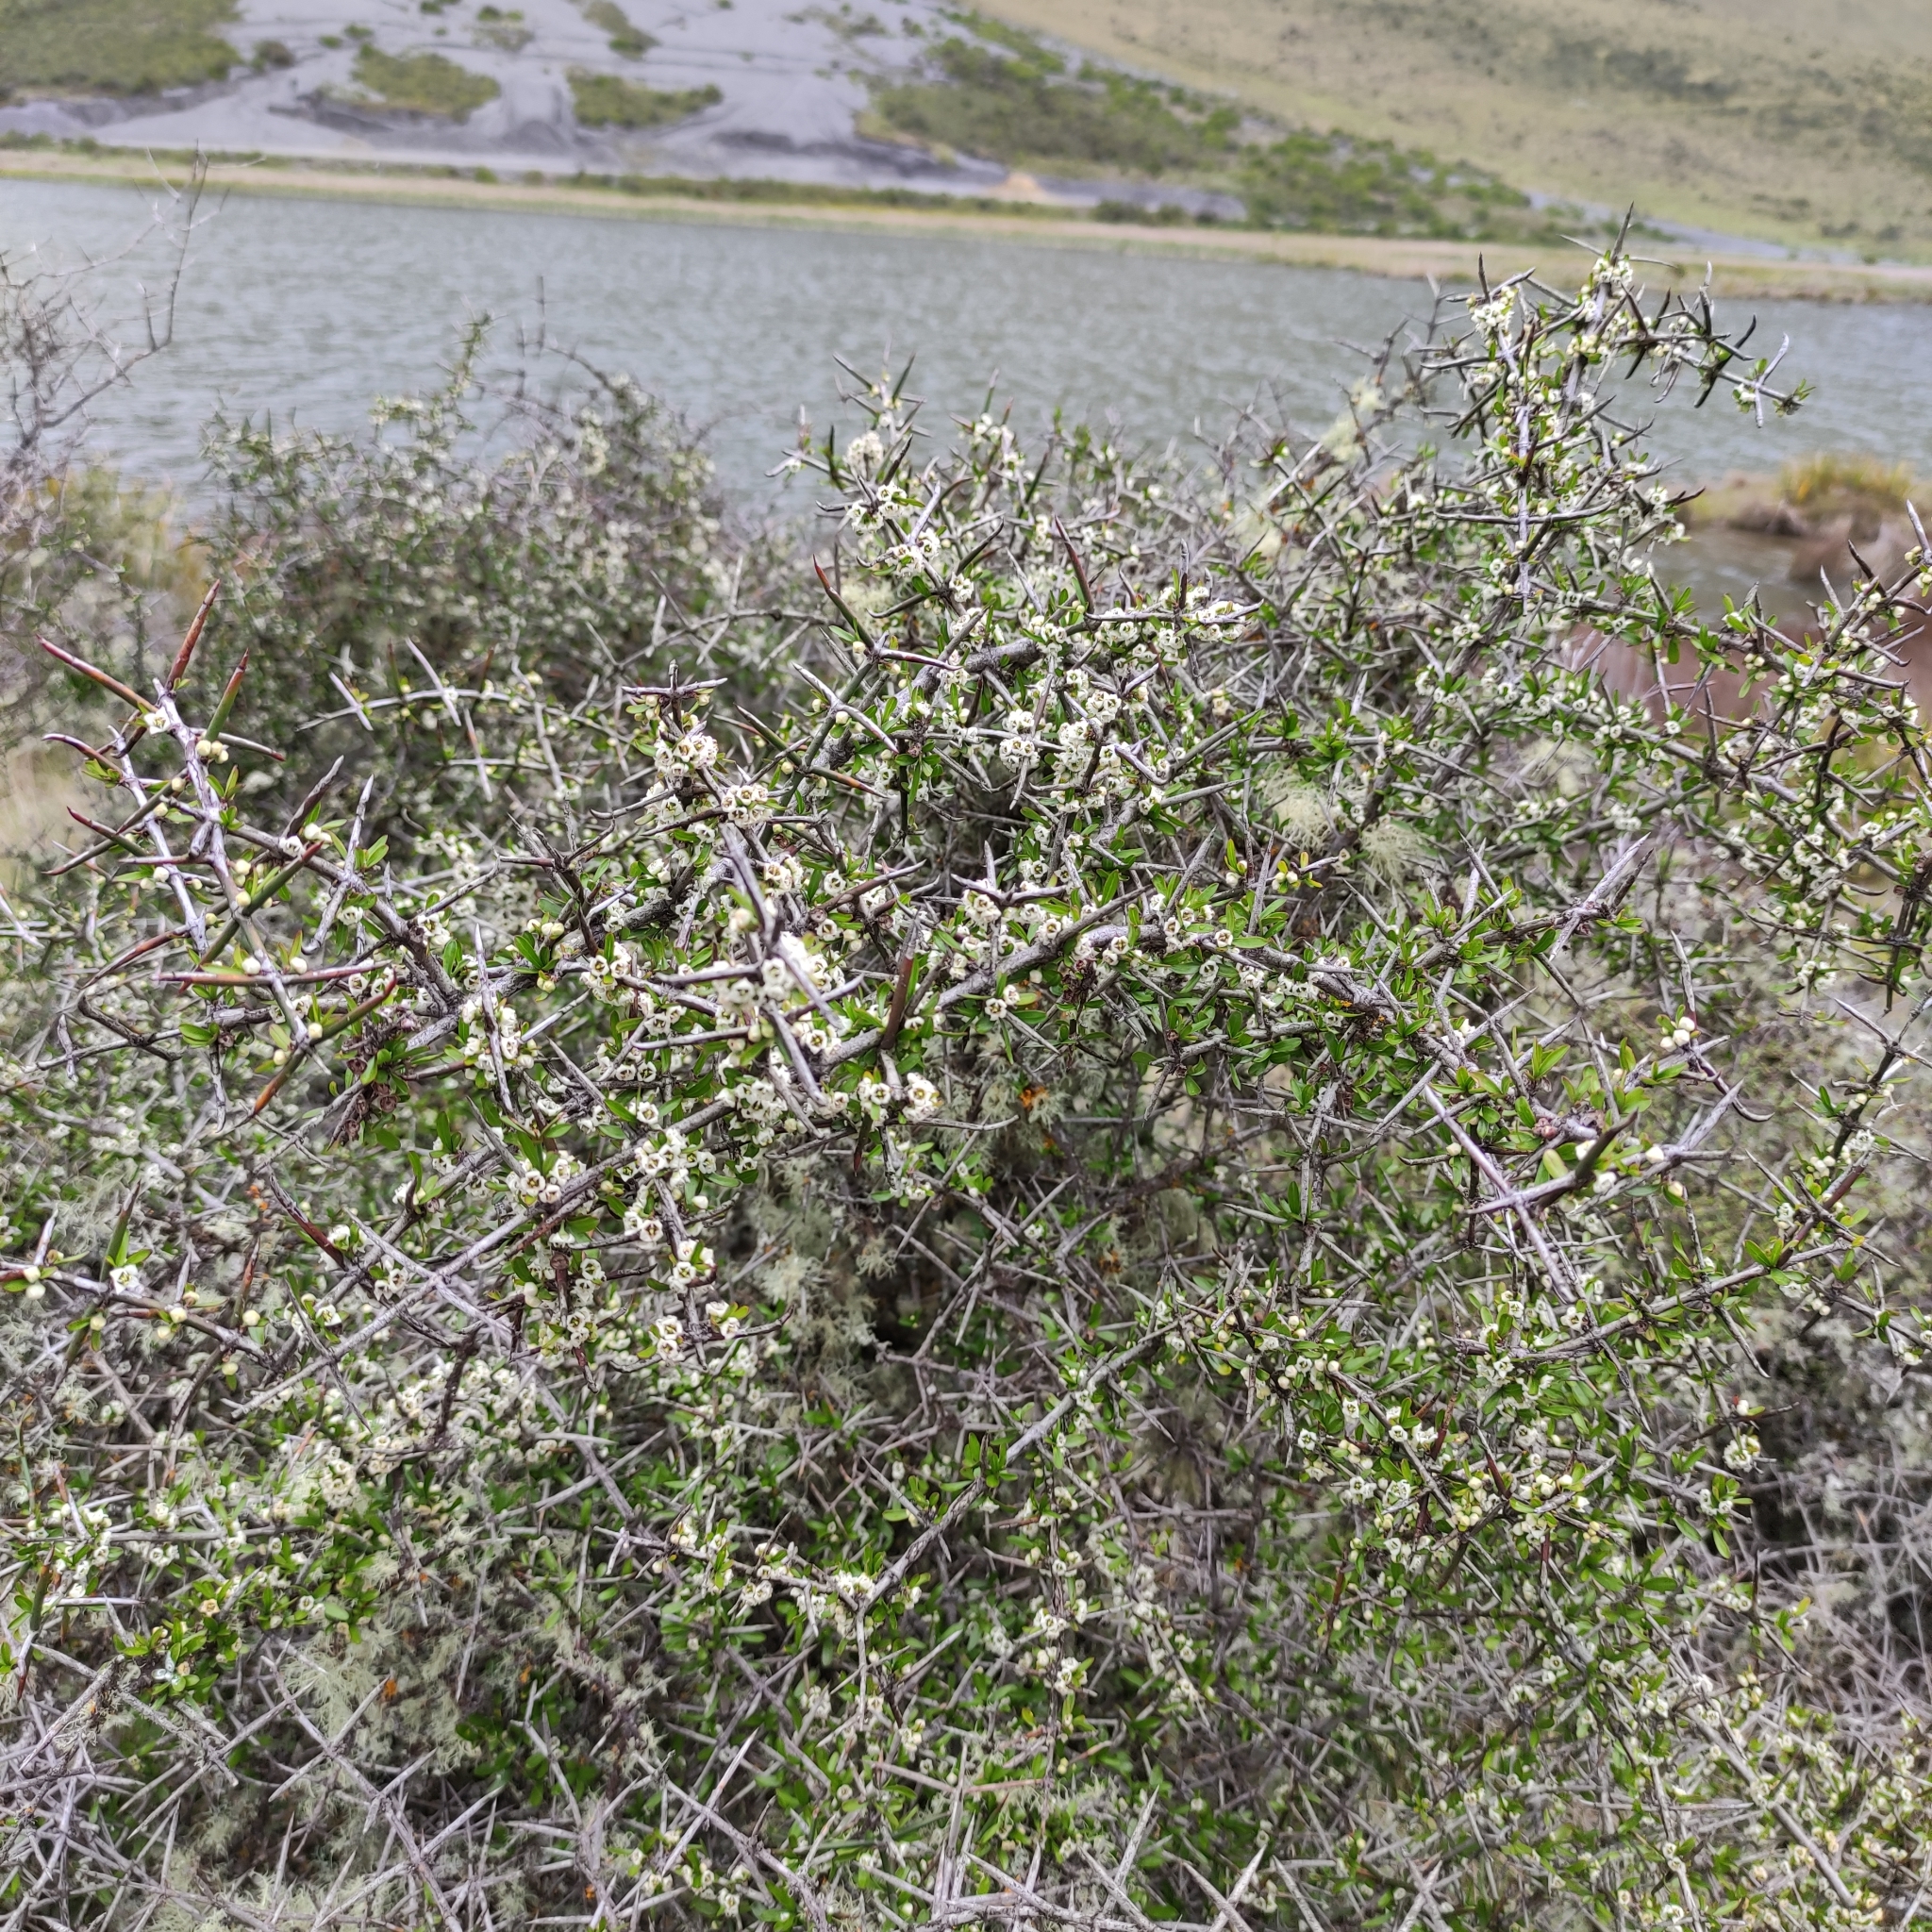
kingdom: Plantae
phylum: Tracheophyta
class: Magnoliopsida
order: Rosales
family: Rhamnaceae
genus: Discaria
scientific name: Discaria toumatou
